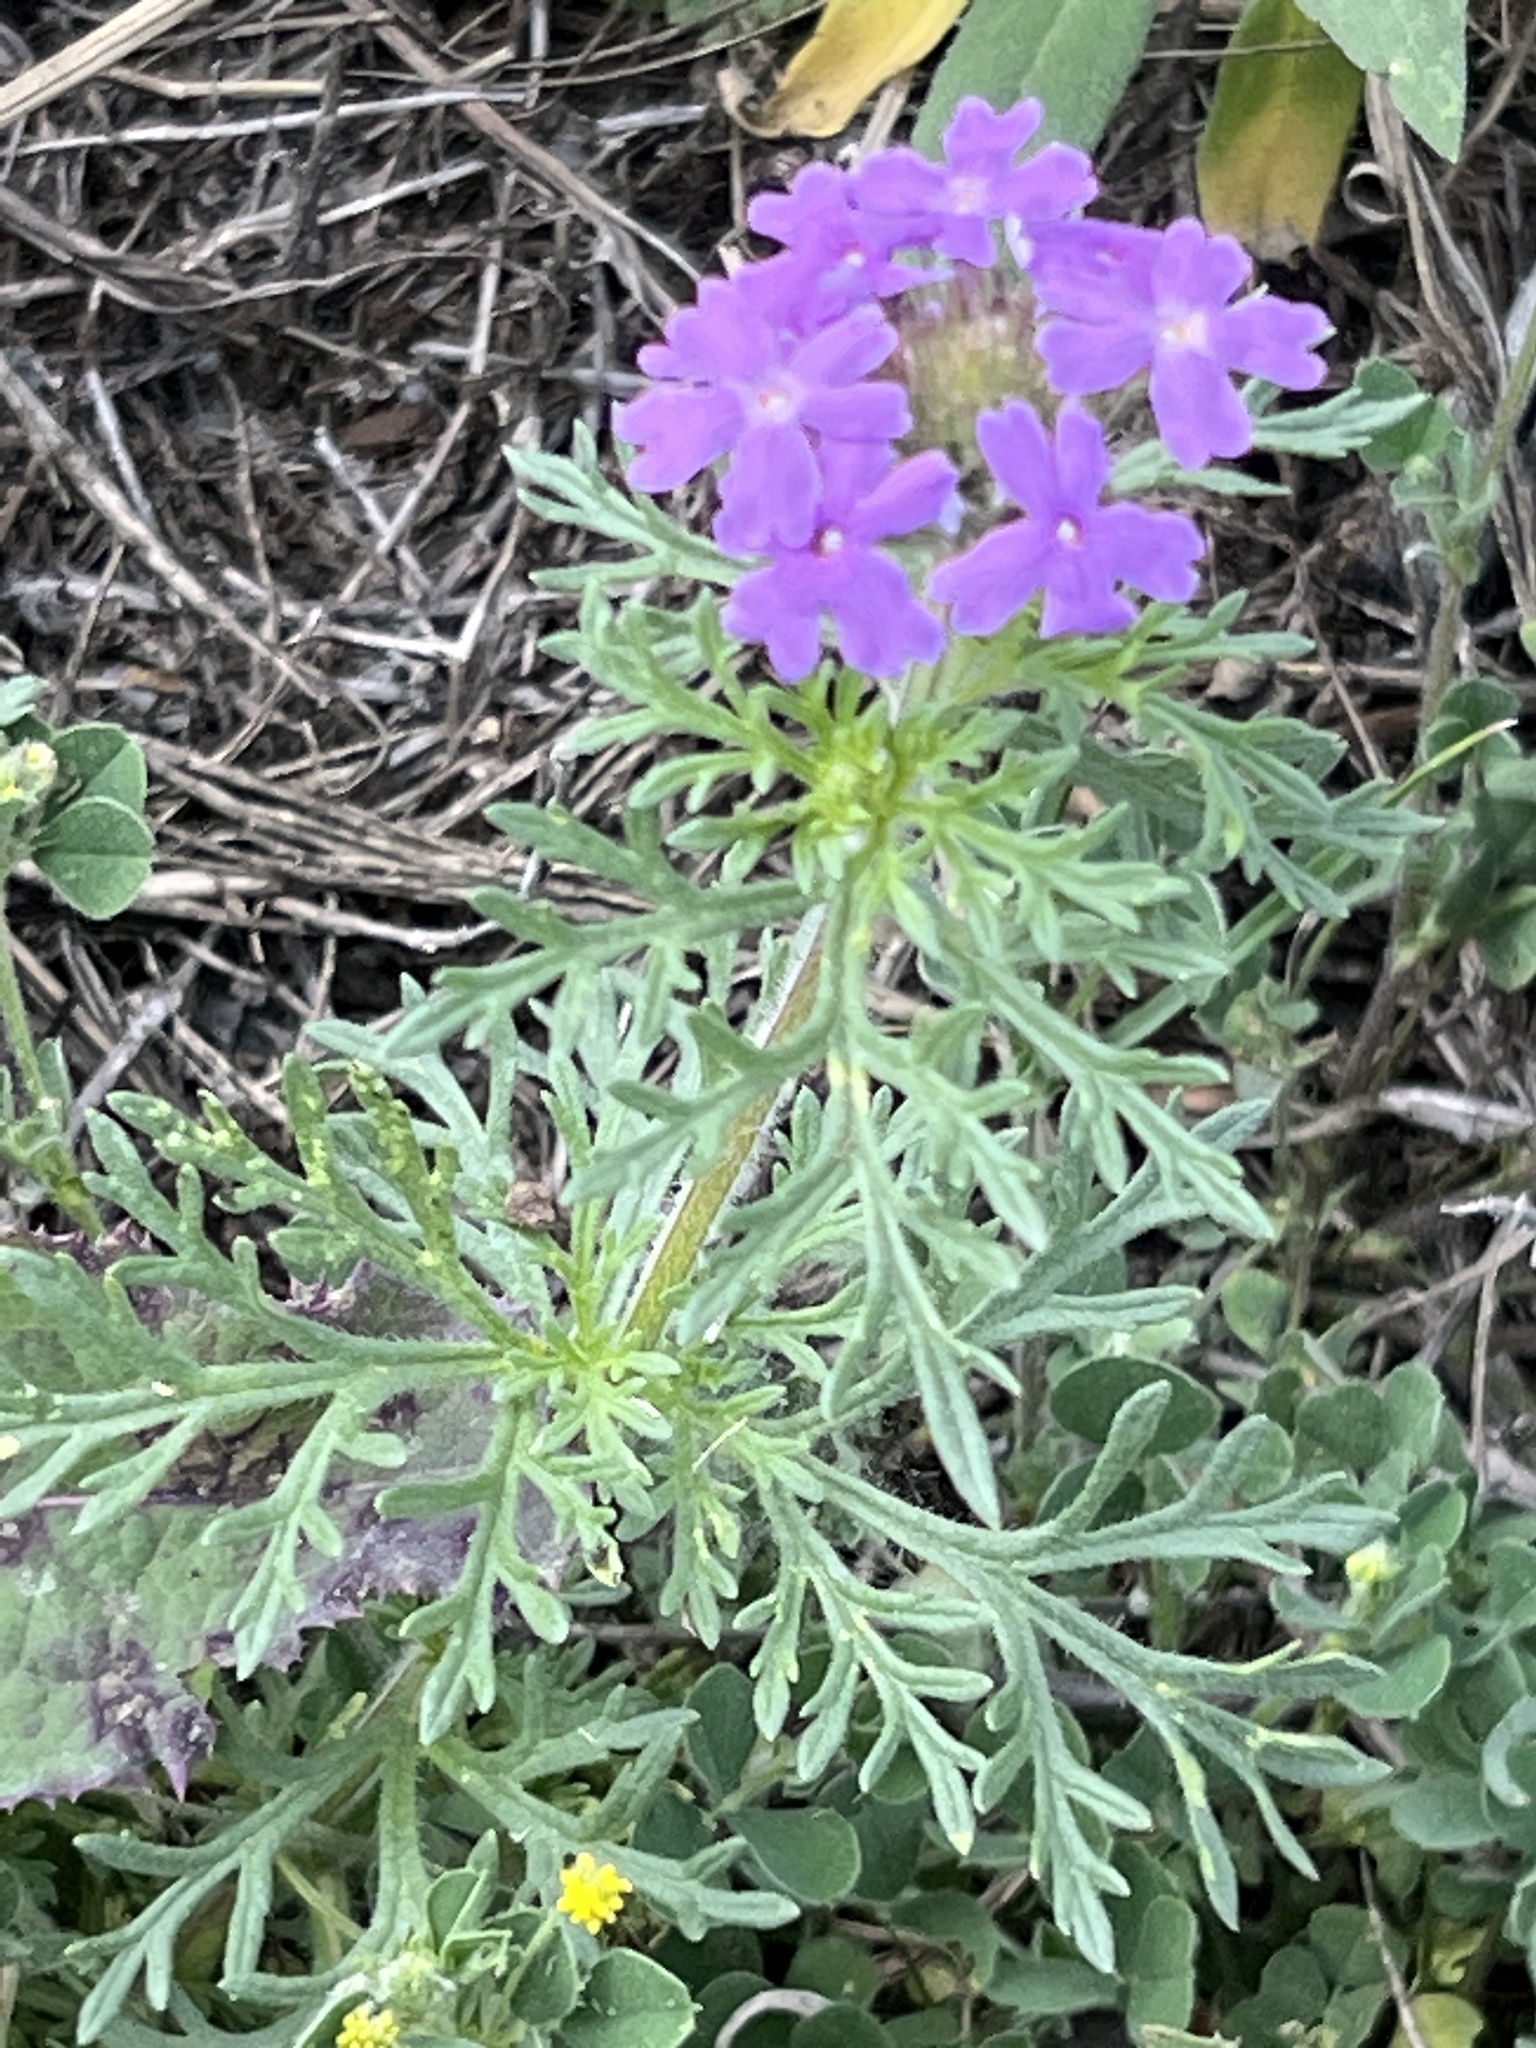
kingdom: Plantae
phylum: Tracheophyta
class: Magnoliopsida
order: Lamiales
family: Verbenaceae
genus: Verbena
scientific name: Verbena bipinnatifida
